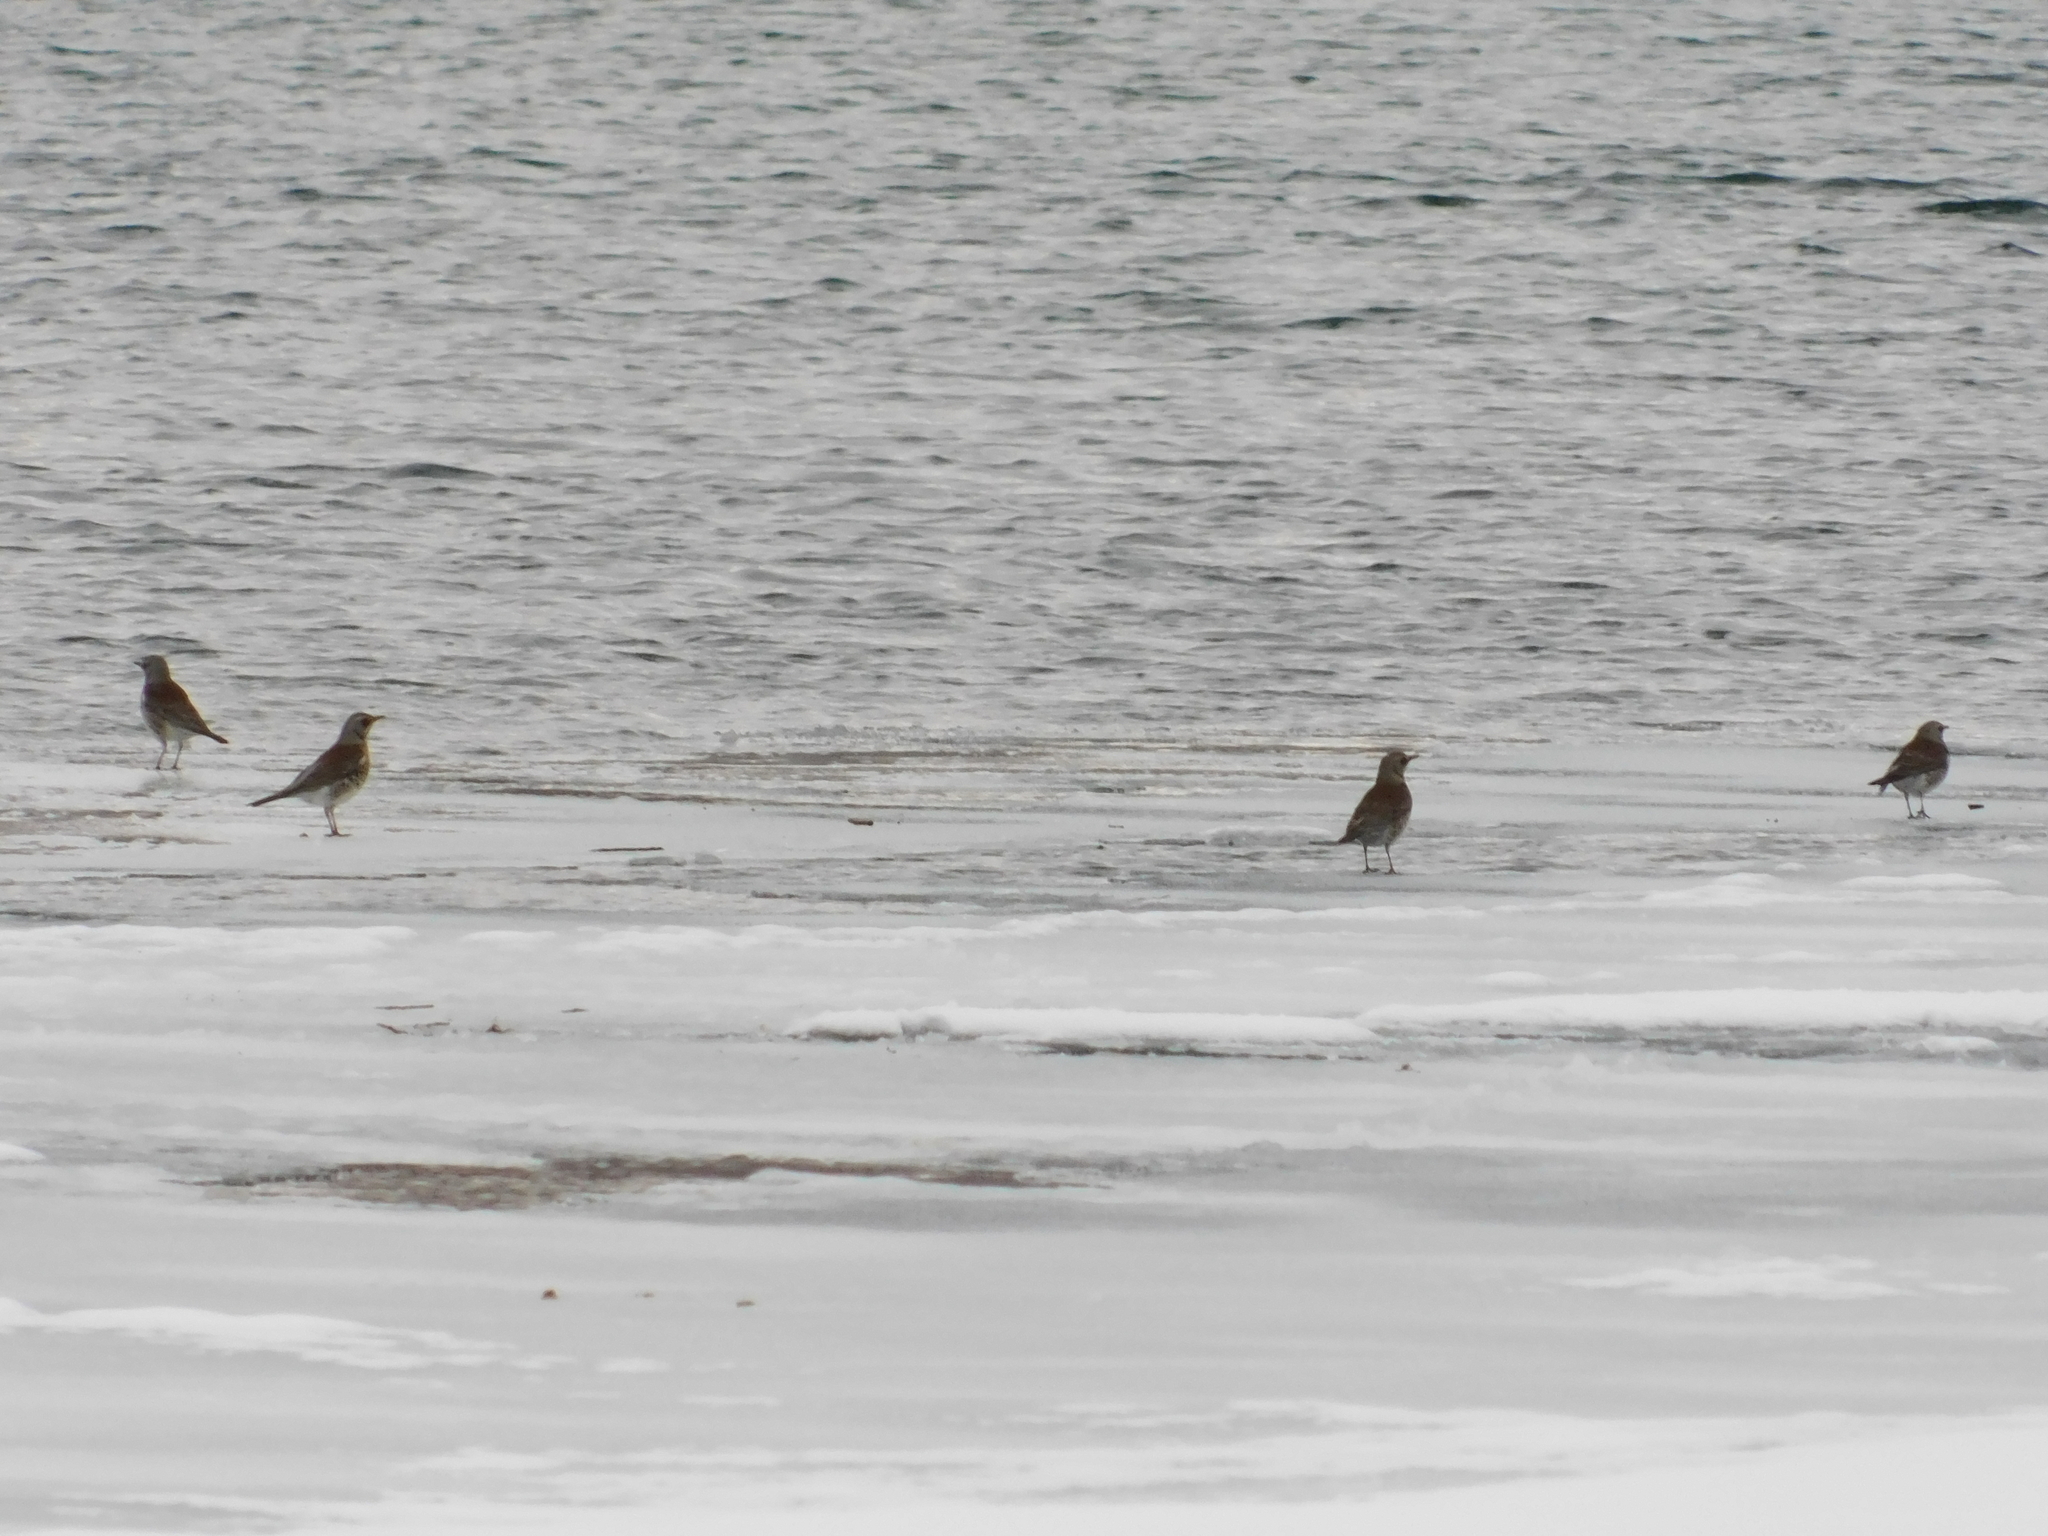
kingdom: Animalia
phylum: Chordata
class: Aves
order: Passeriformes
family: Turdidae
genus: Turdus
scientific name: Turdus pilaris
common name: Fieldfare
